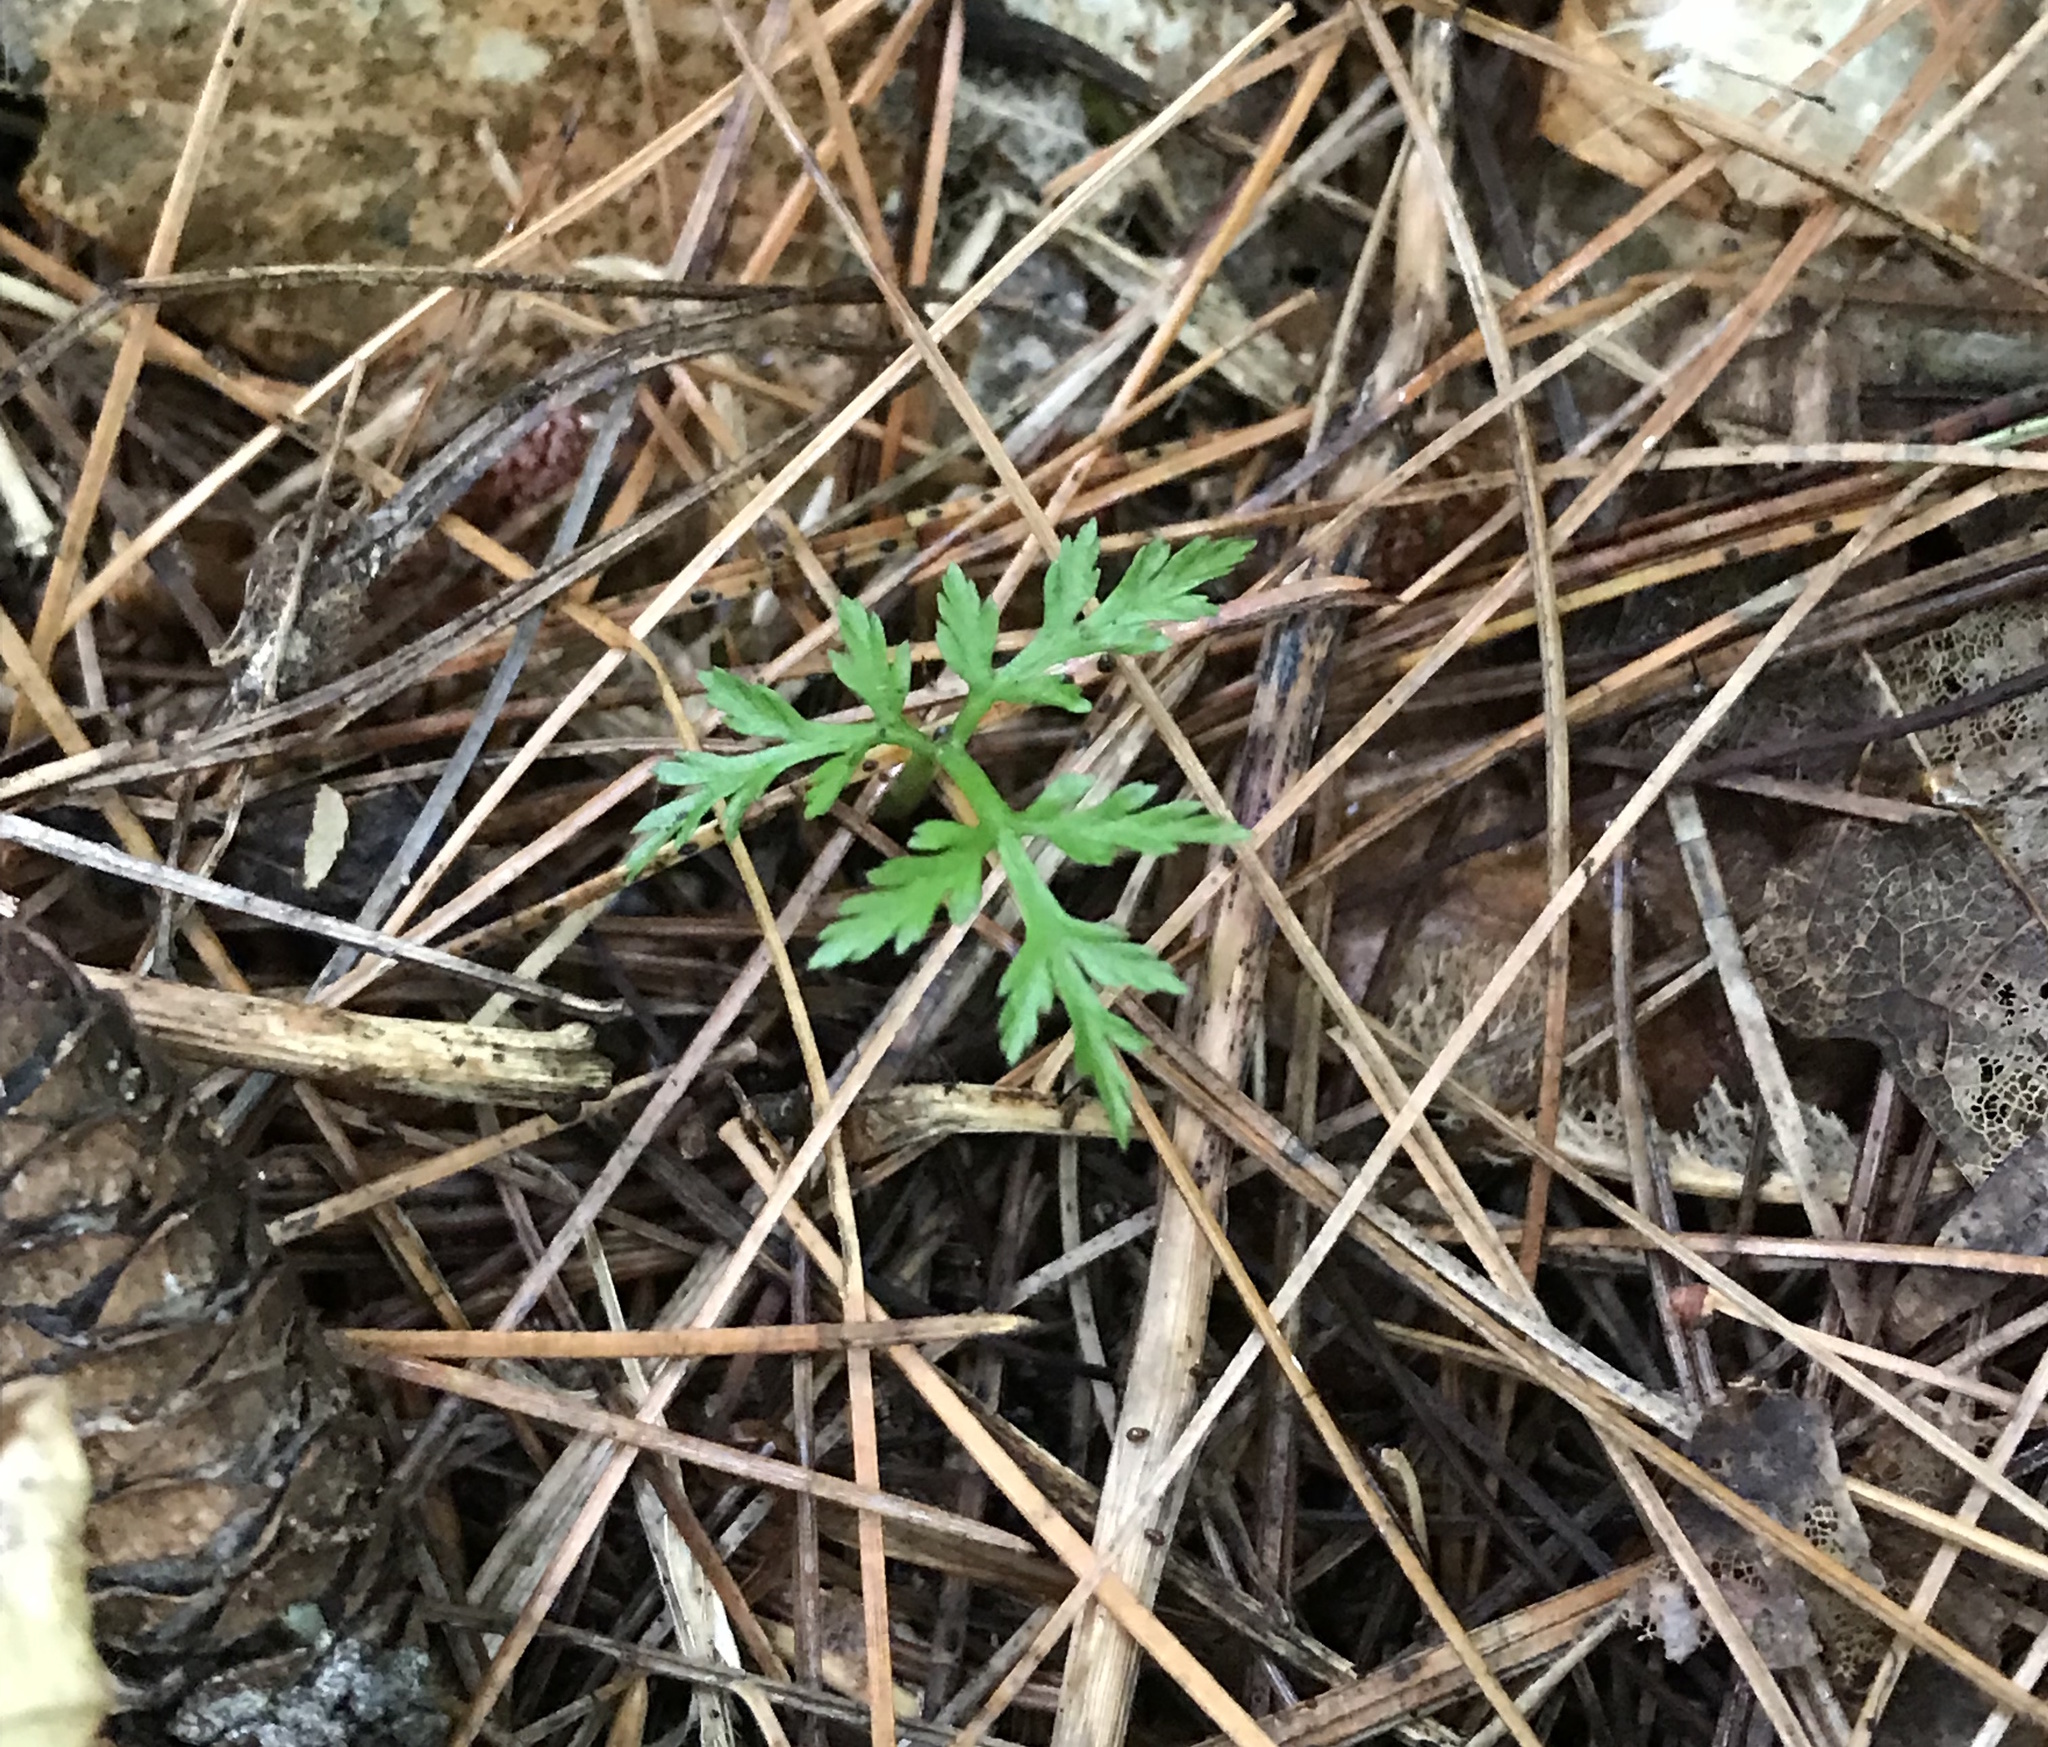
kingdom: Plantae
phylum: Tracheophyta
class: Polypodiopsida
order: Ophioglossales
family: Ophioglossaceae
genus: Botrypus
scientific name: Botrypus virginianus
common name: Common grapefern
